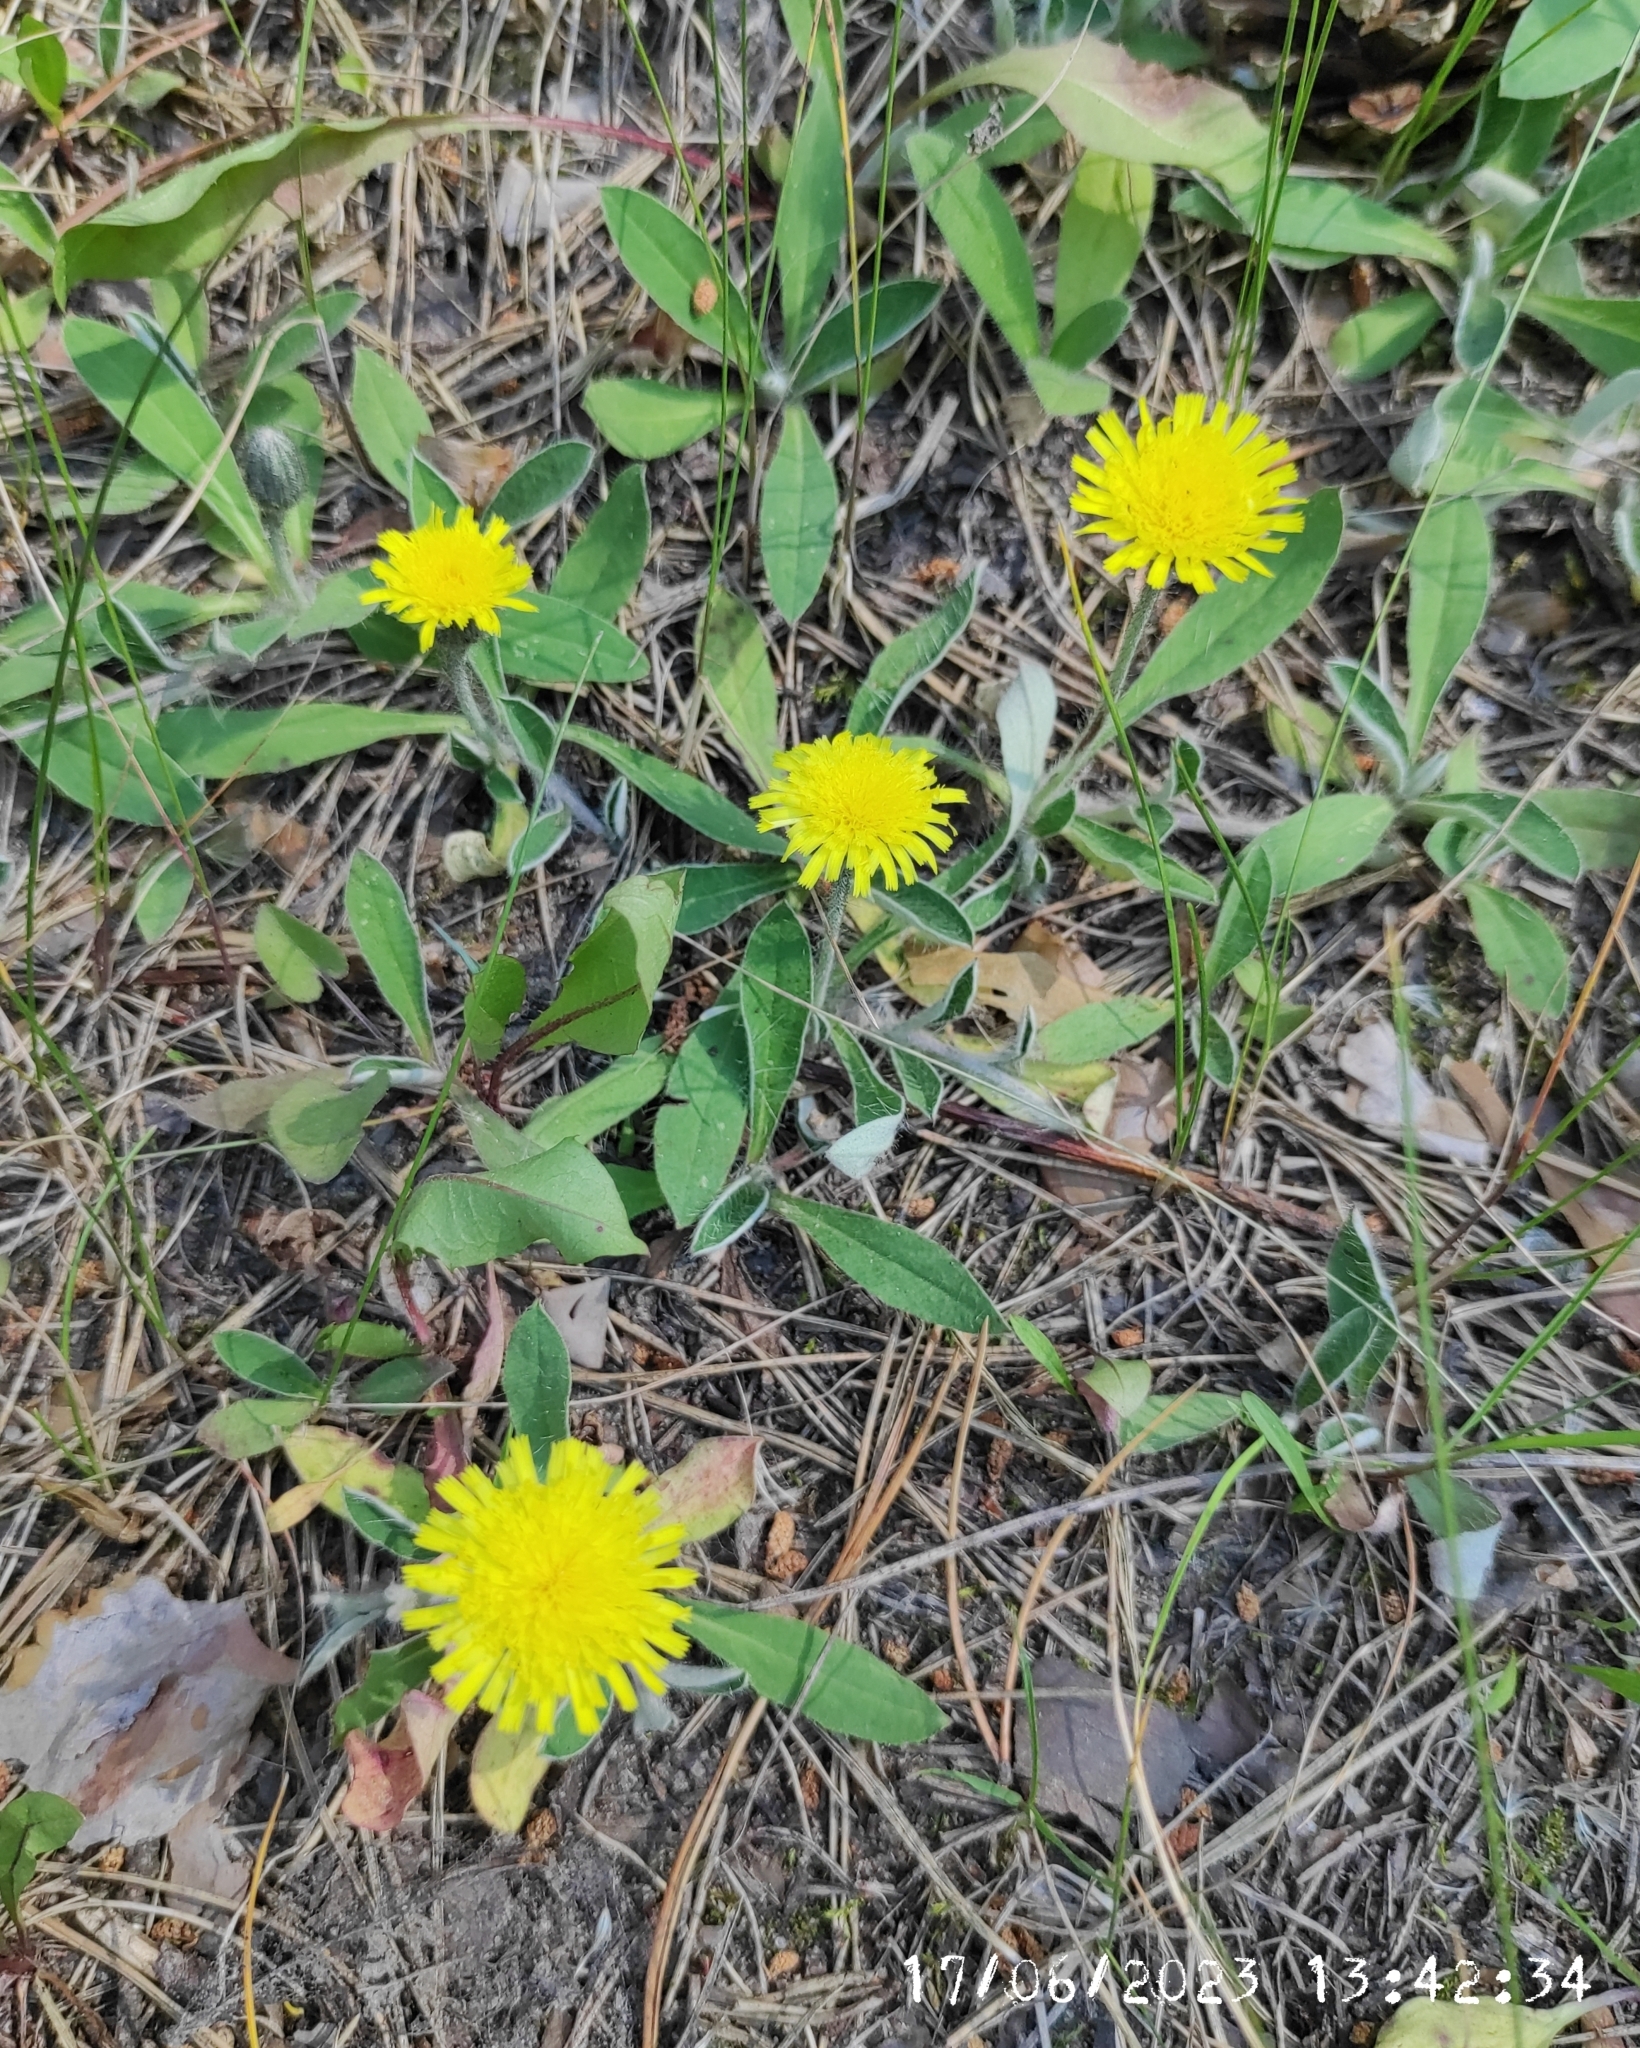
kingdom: Plantae
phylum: Tracheophyta
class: Magnoliopsida
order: Asterales
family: Asteraceae
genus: Pilosella
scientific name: Pilosella officinarum
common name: Mouse-ear hawkweed
